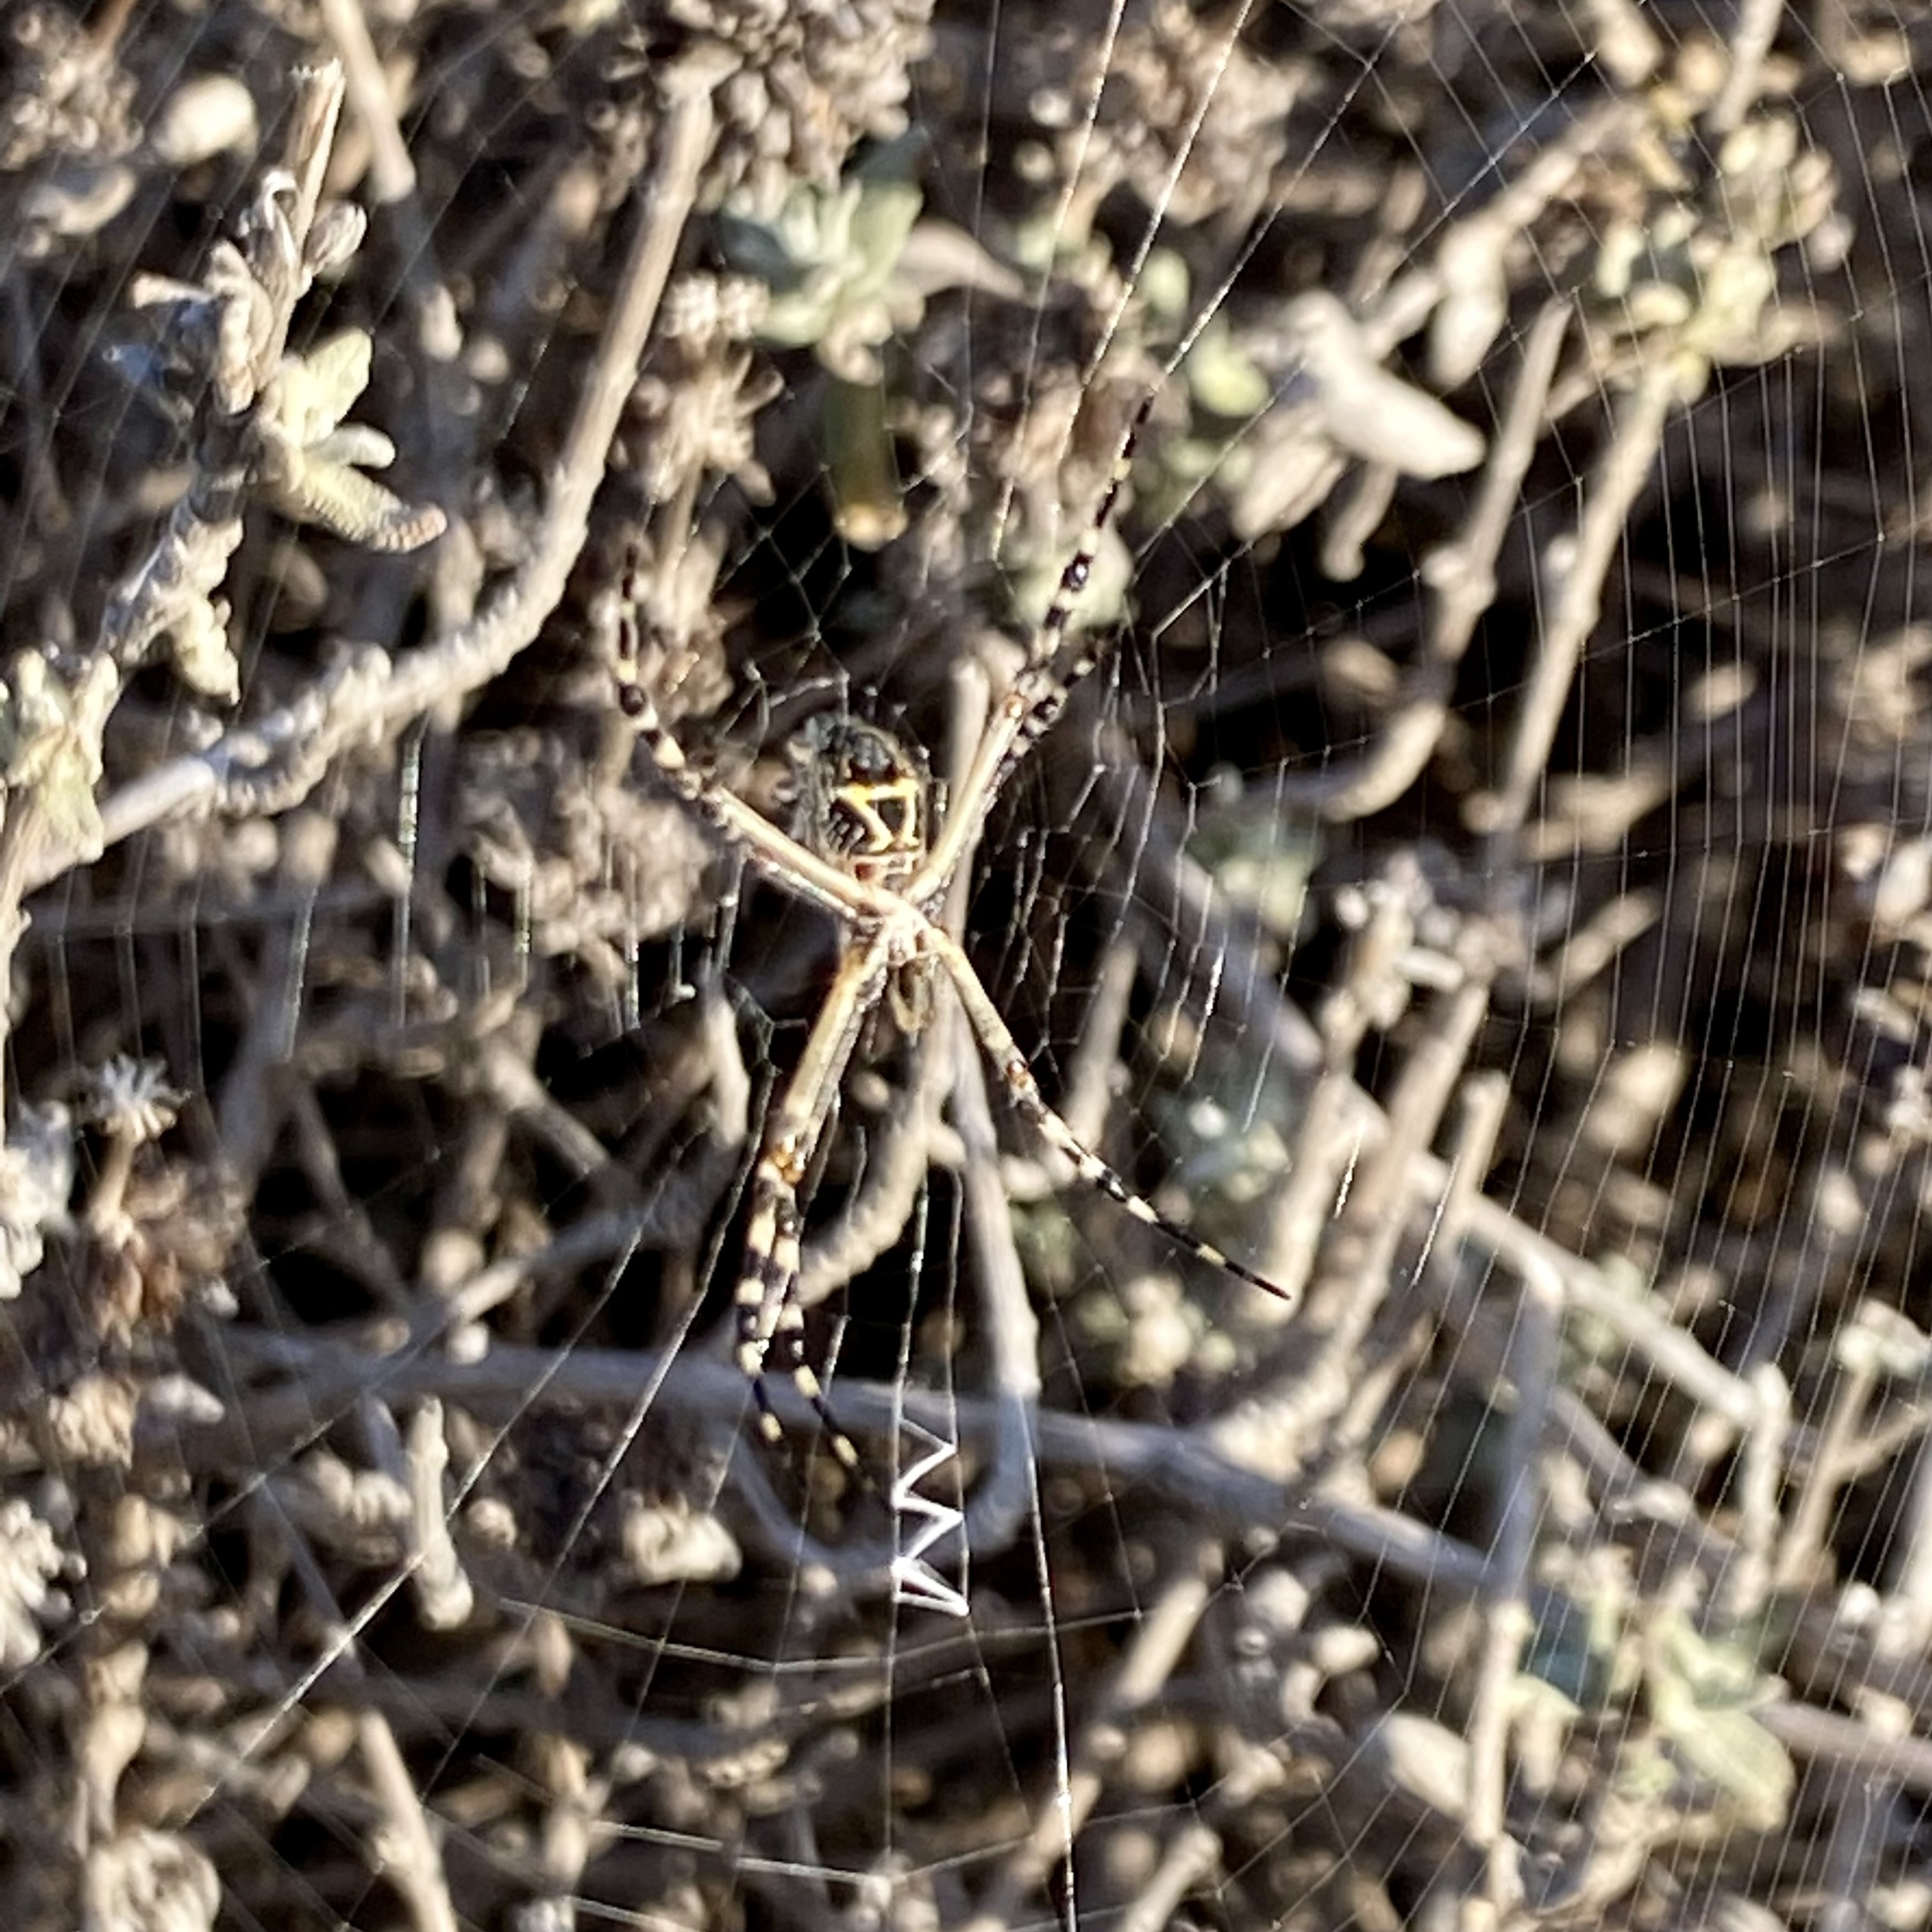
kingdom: Animalia
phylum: Arthropoda
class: Arachnida
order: Araneae
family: Araneidae
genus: Argiope
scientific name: Argiope argentata
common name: Orb weavers
